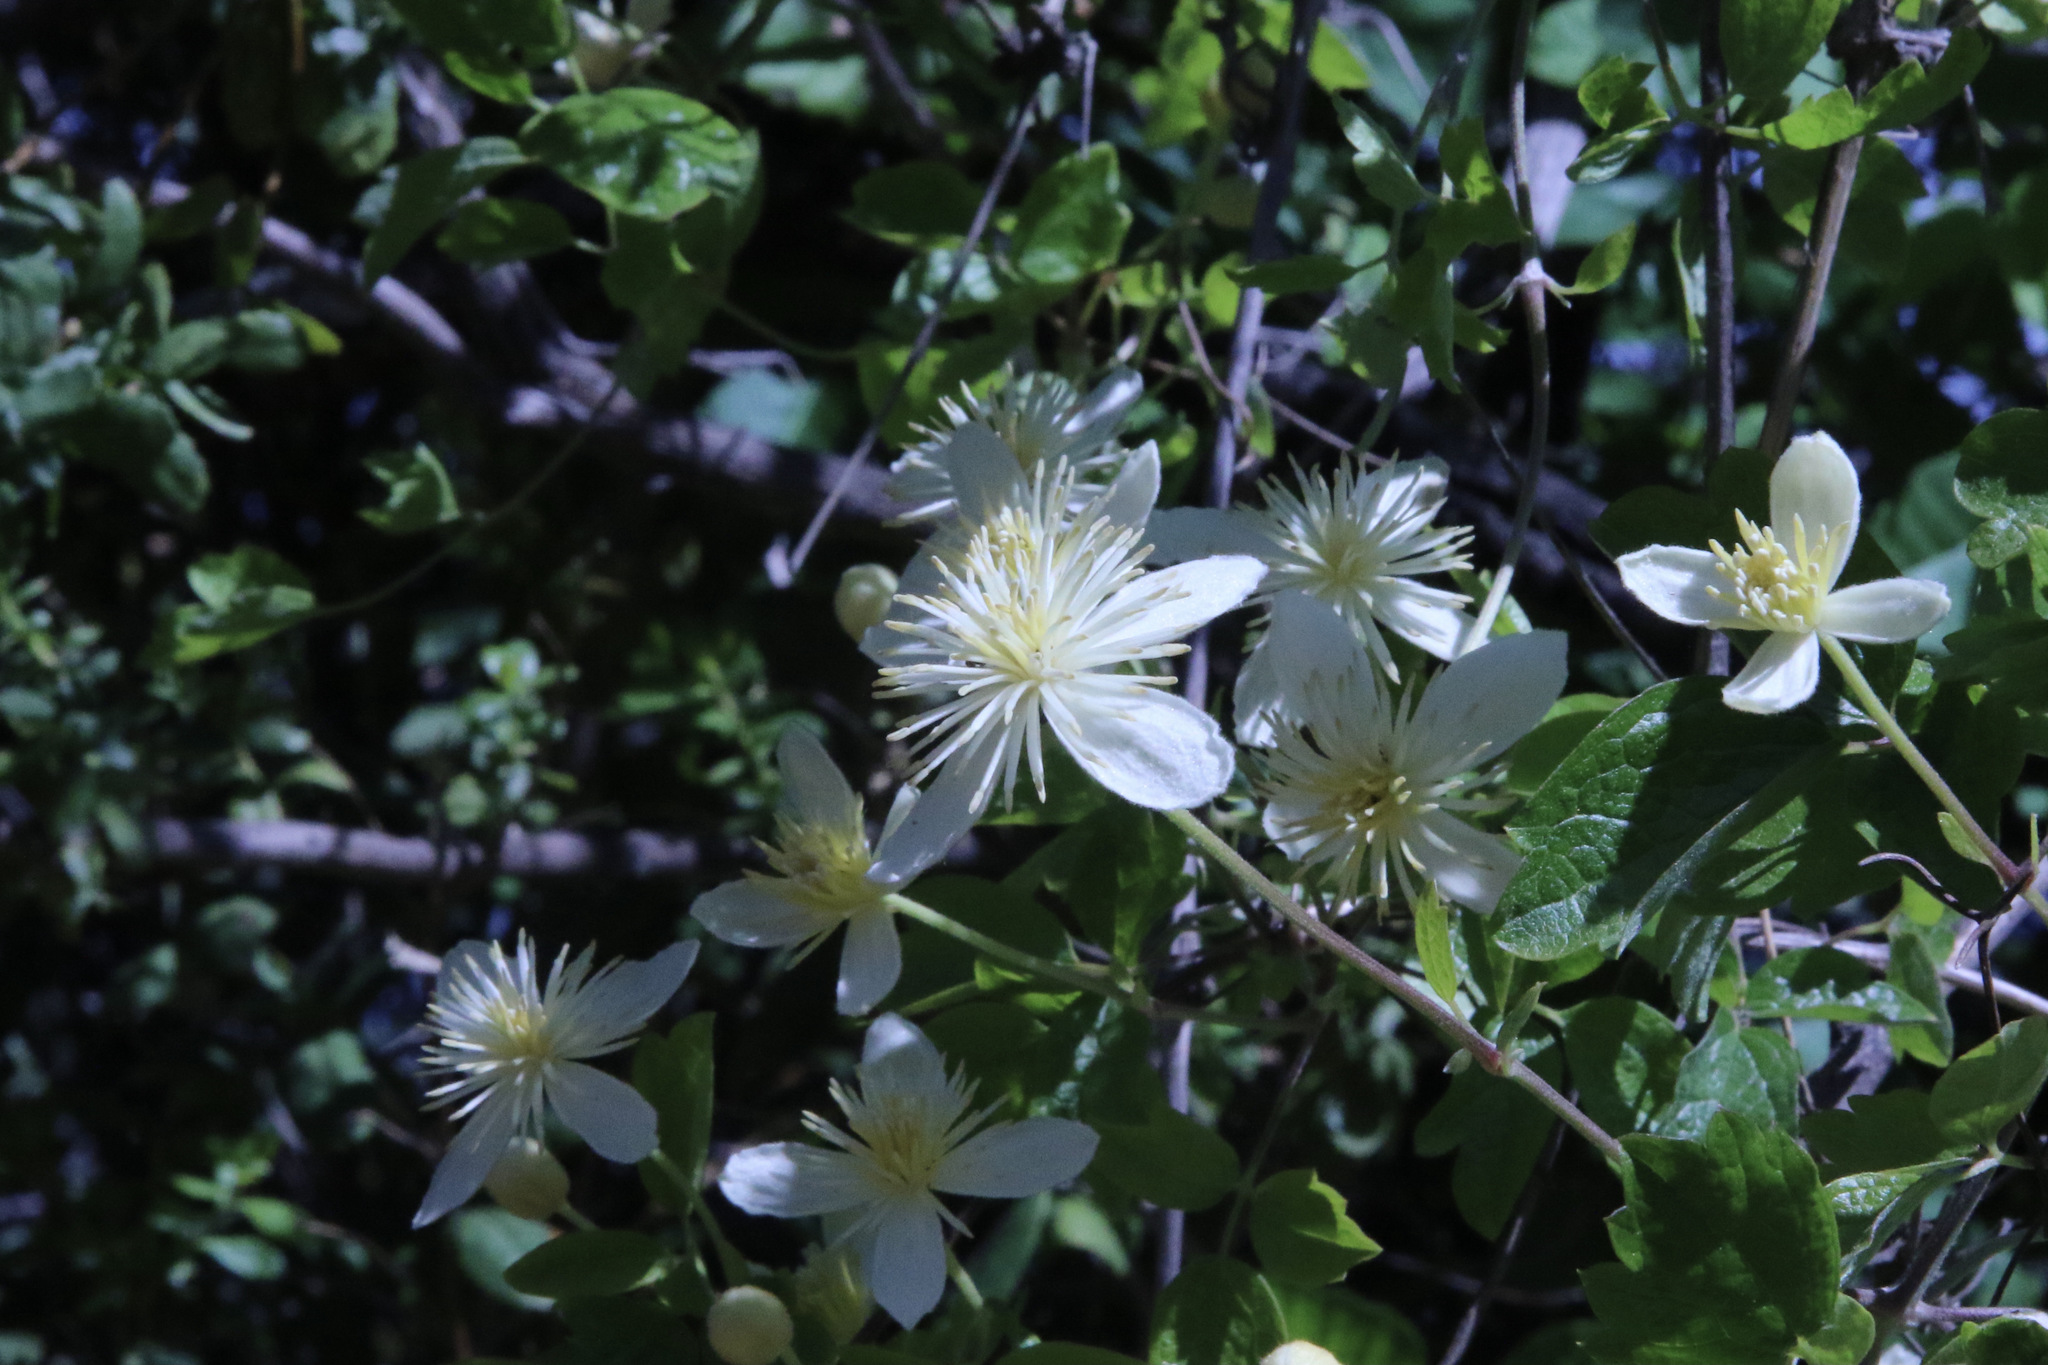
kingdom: Plantae
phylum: Tracheophyta
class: Magnoliopsida
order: Ranunculales
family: Ranunculaceae
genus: Clematis
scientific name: Clematis lasiantha
